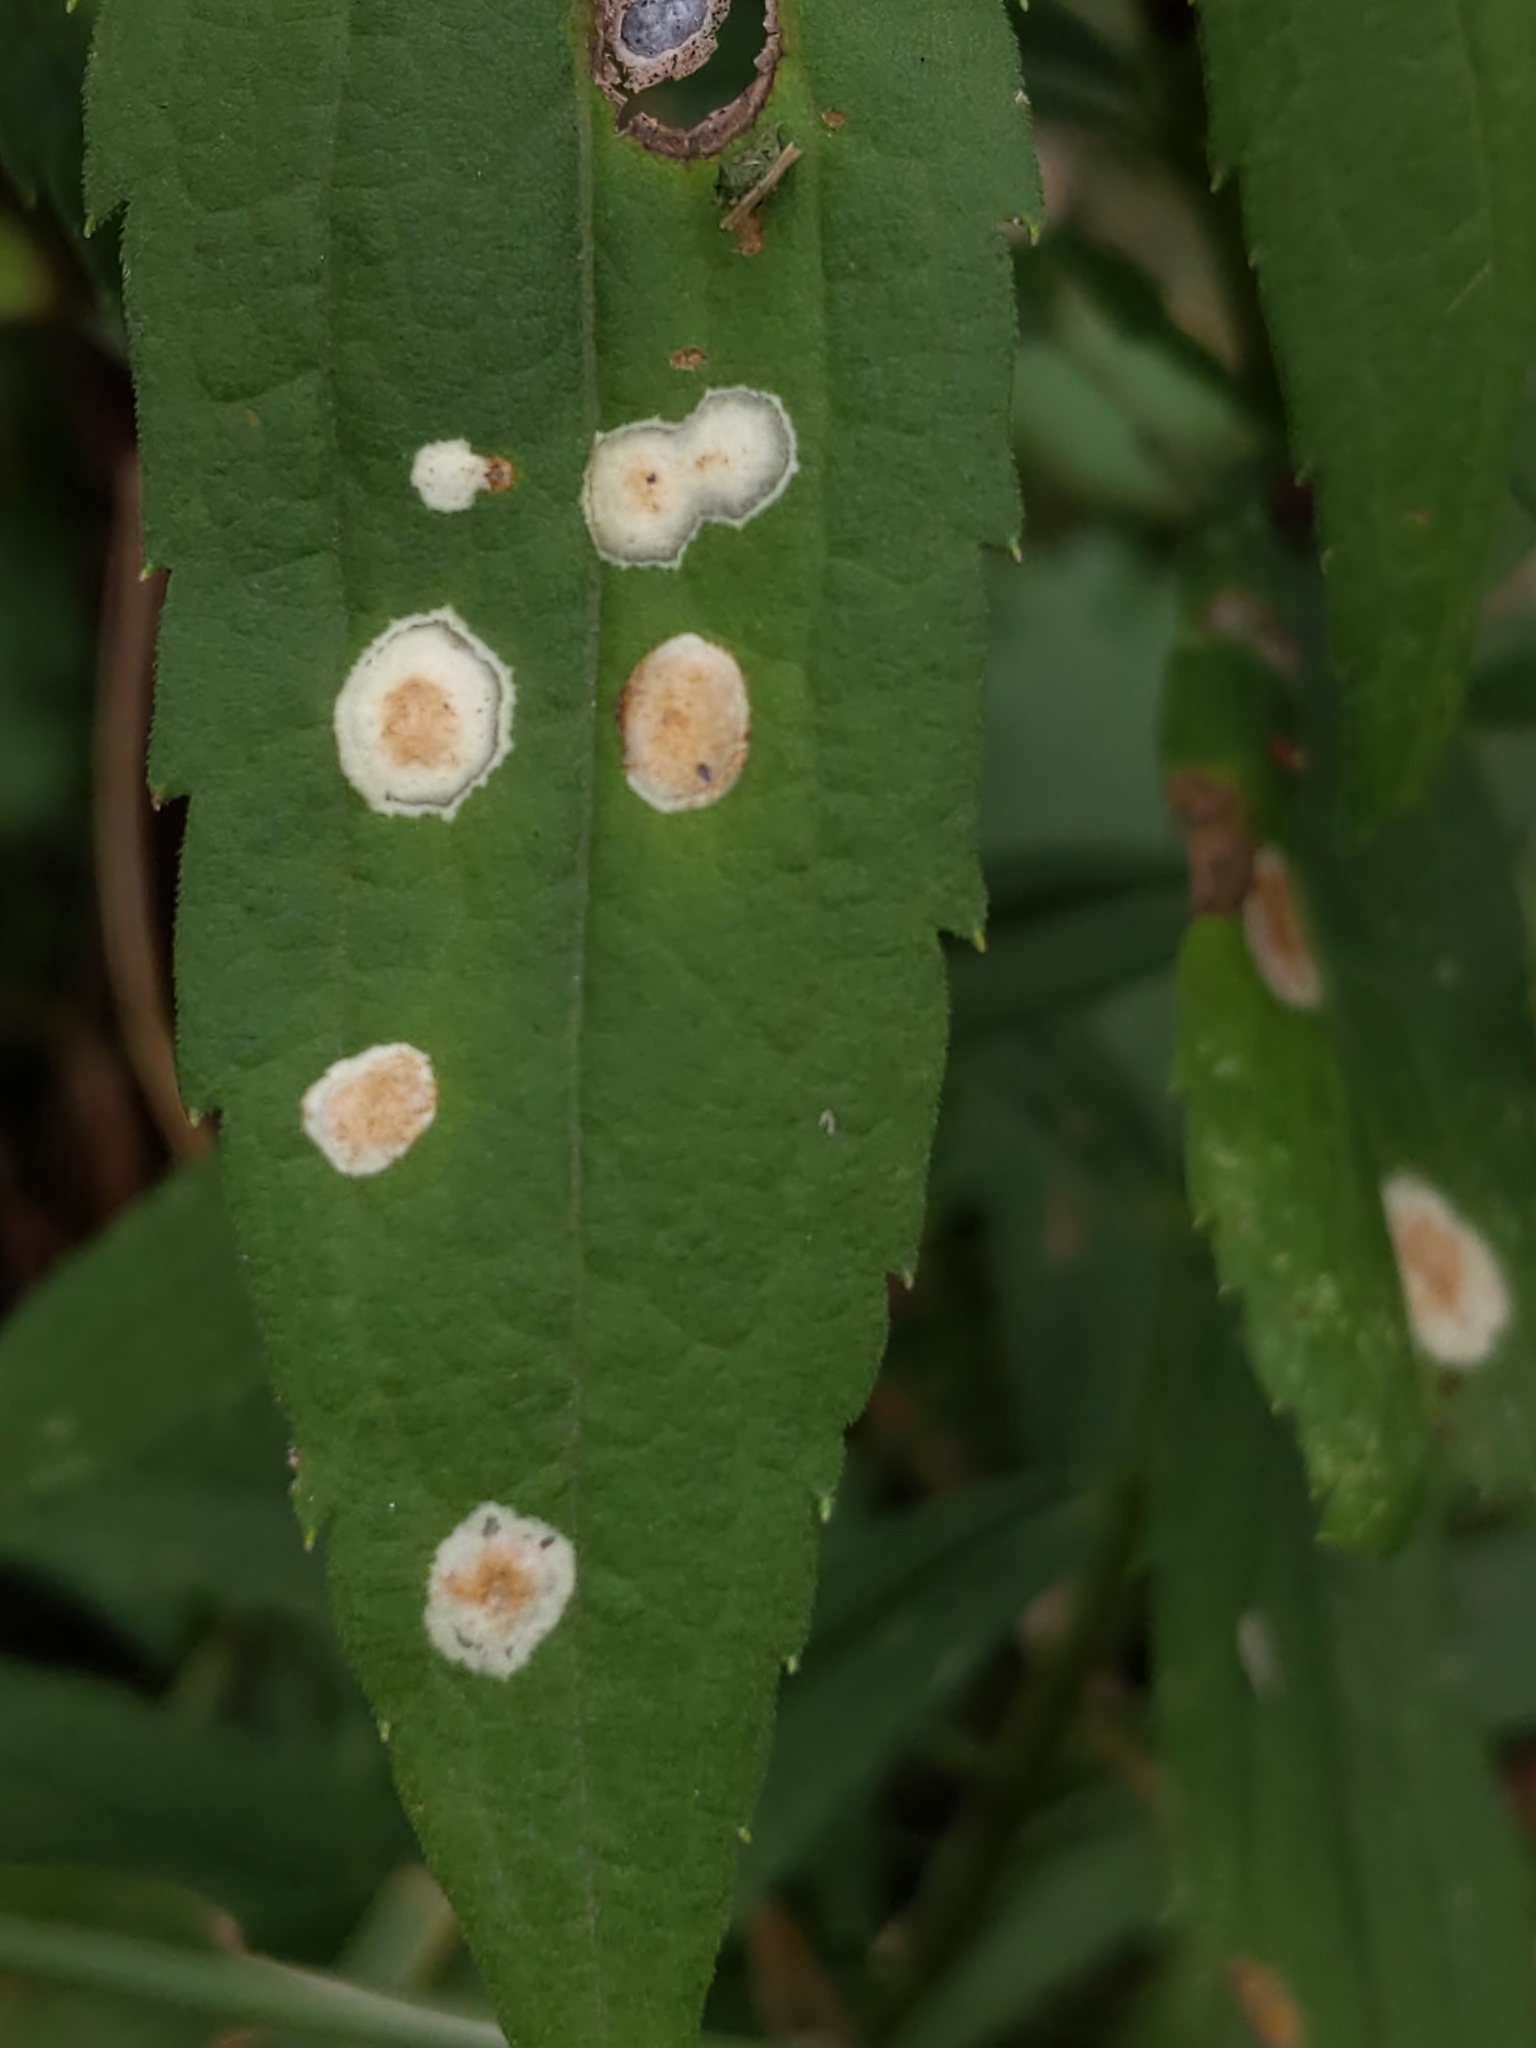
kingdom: Animalia
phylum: Arthropoda
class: Insecta
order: Diptera
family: Cecidomyiidae
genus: Asteromyia
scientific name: Asteromyia carbonifera
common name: Carbonifera goldenrod gall midge
